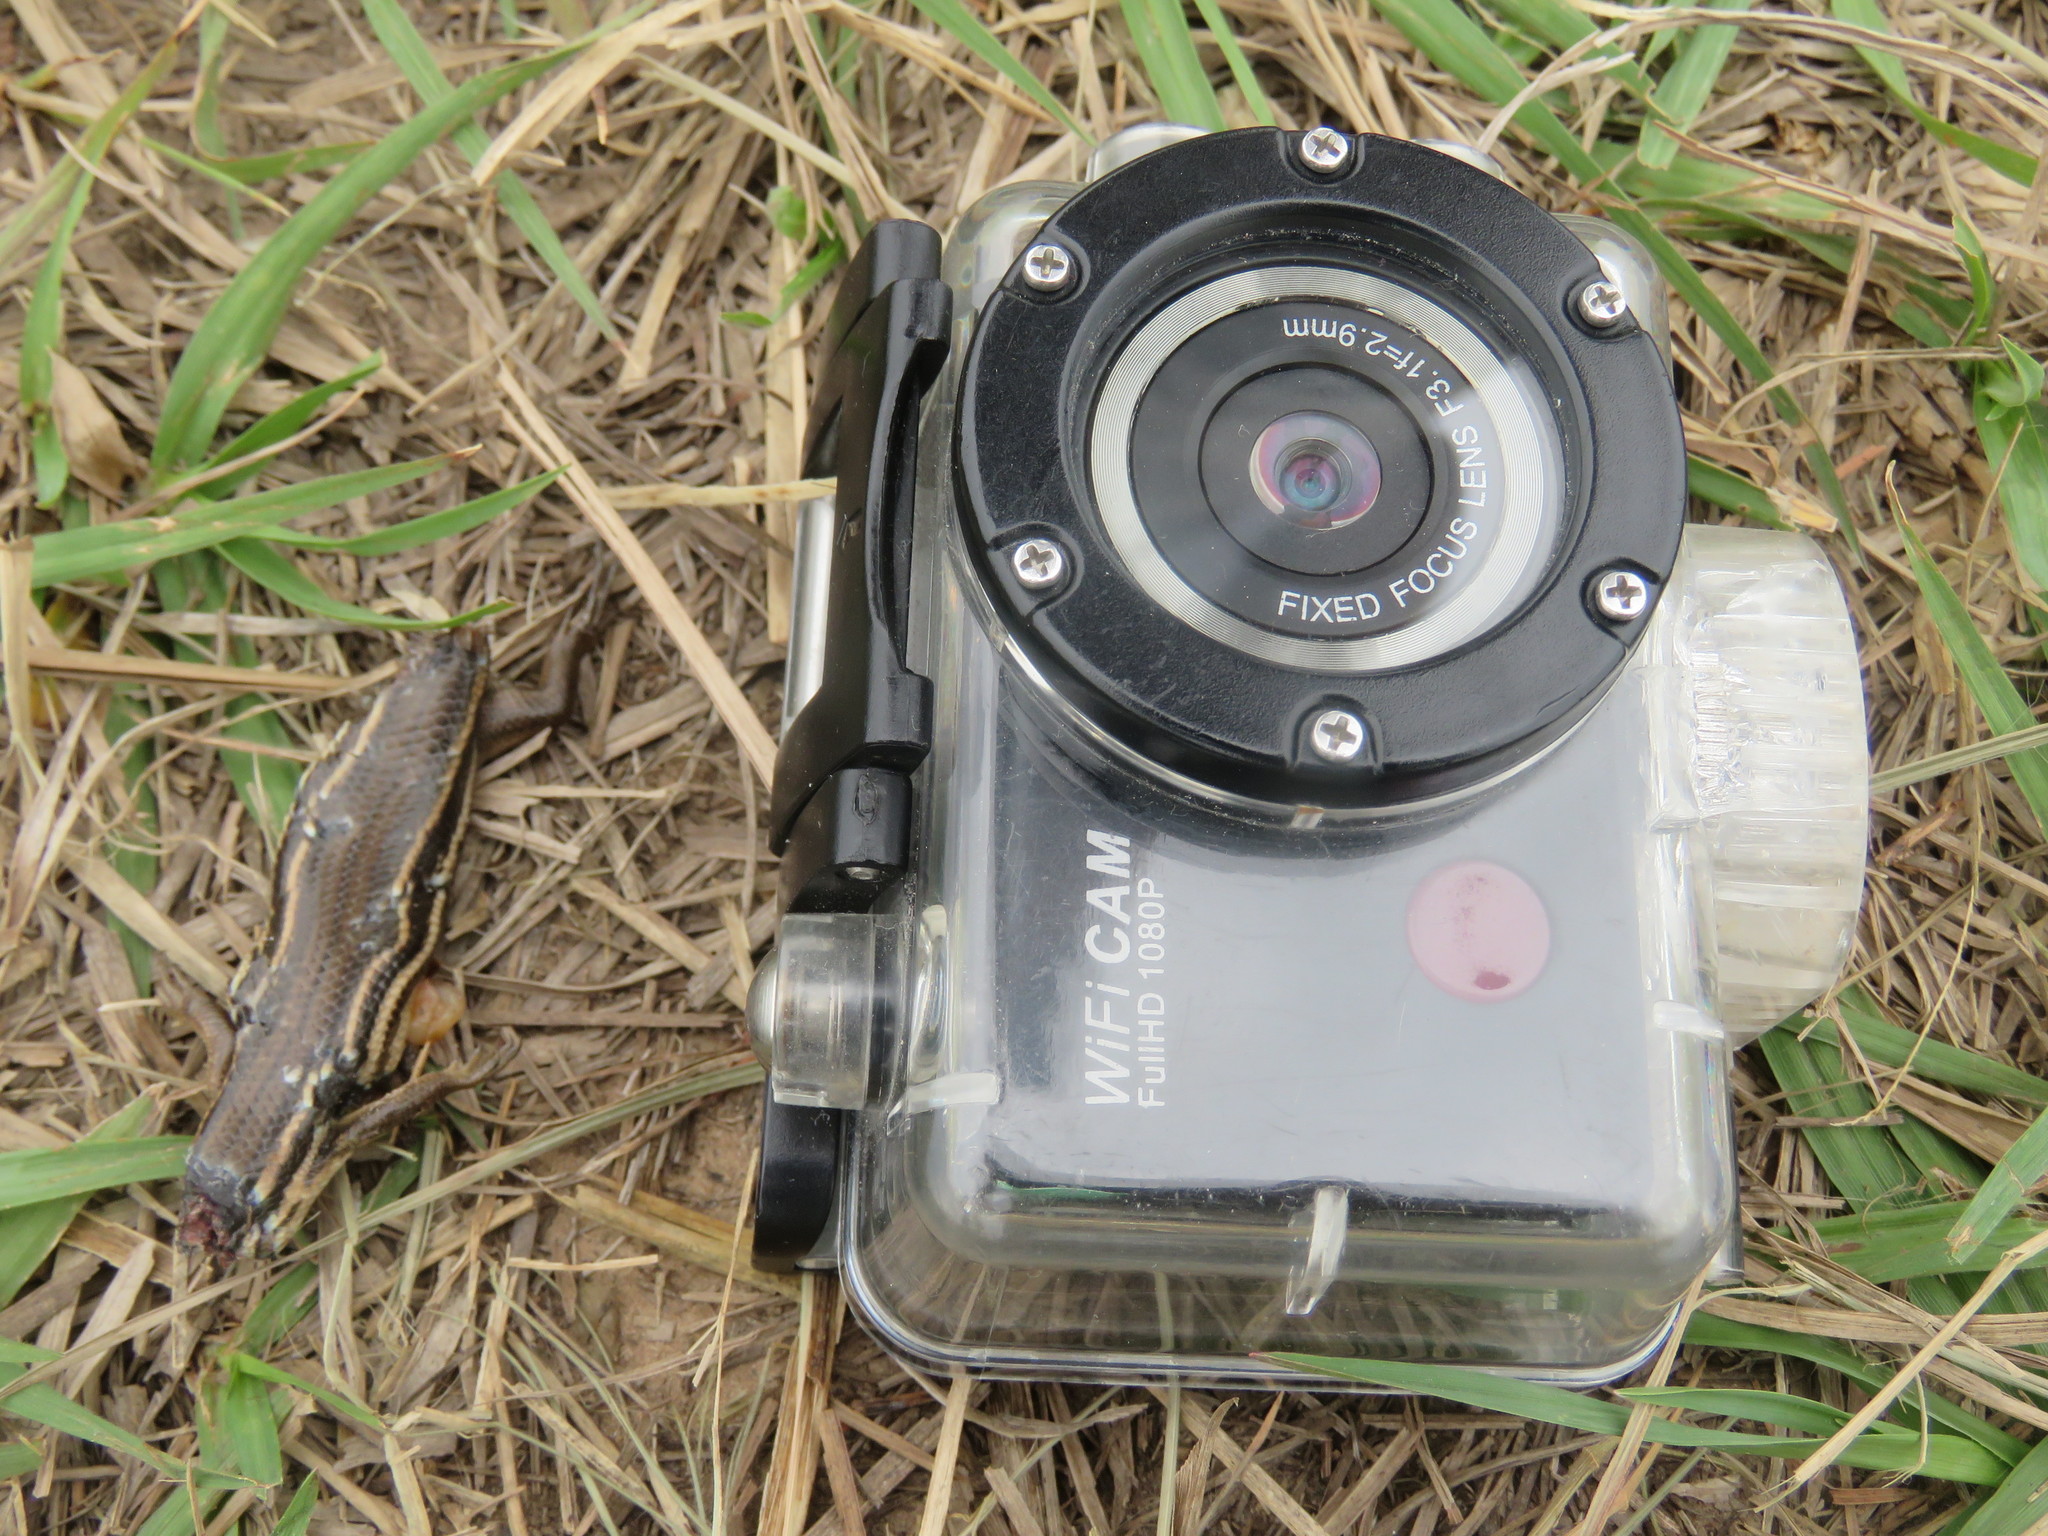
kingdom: Animalia
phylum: Chordata
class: Squamata
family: Scincidae
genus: Aspronema
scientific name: Aspronema dorsivittatum
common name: Paraguay mabuya
